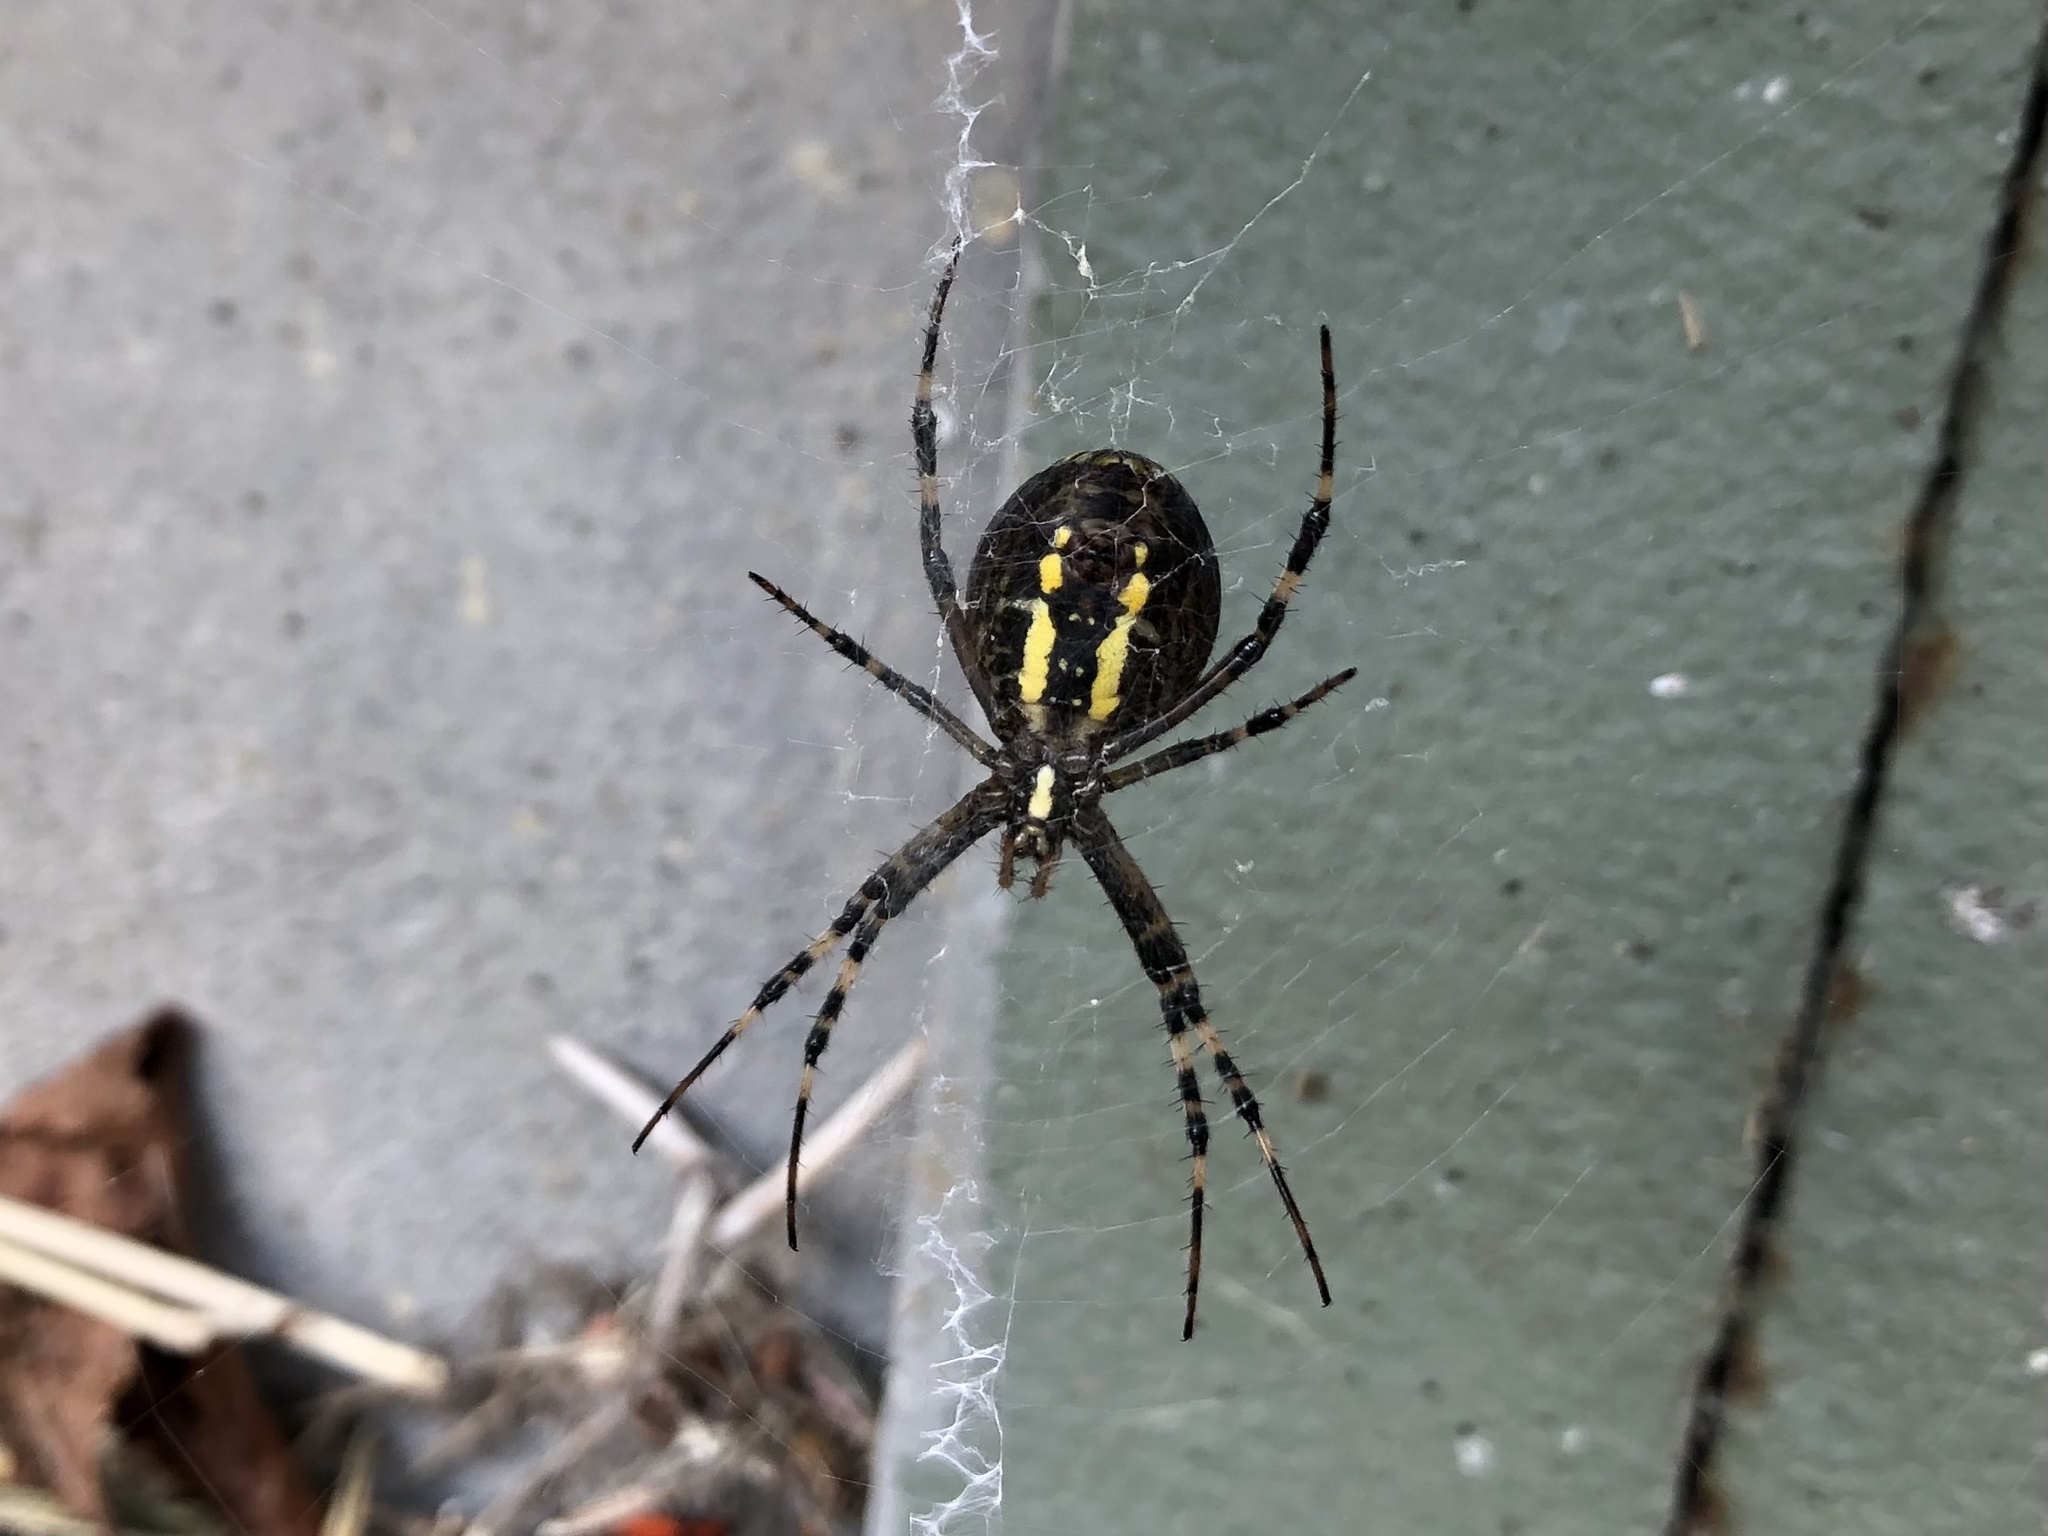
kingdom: Animalia
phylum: Arthropoda
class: Arachnida
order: Araneae
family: Araneidae
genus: Argiope
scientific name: Argiope bruennichi
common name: Wasp spider
